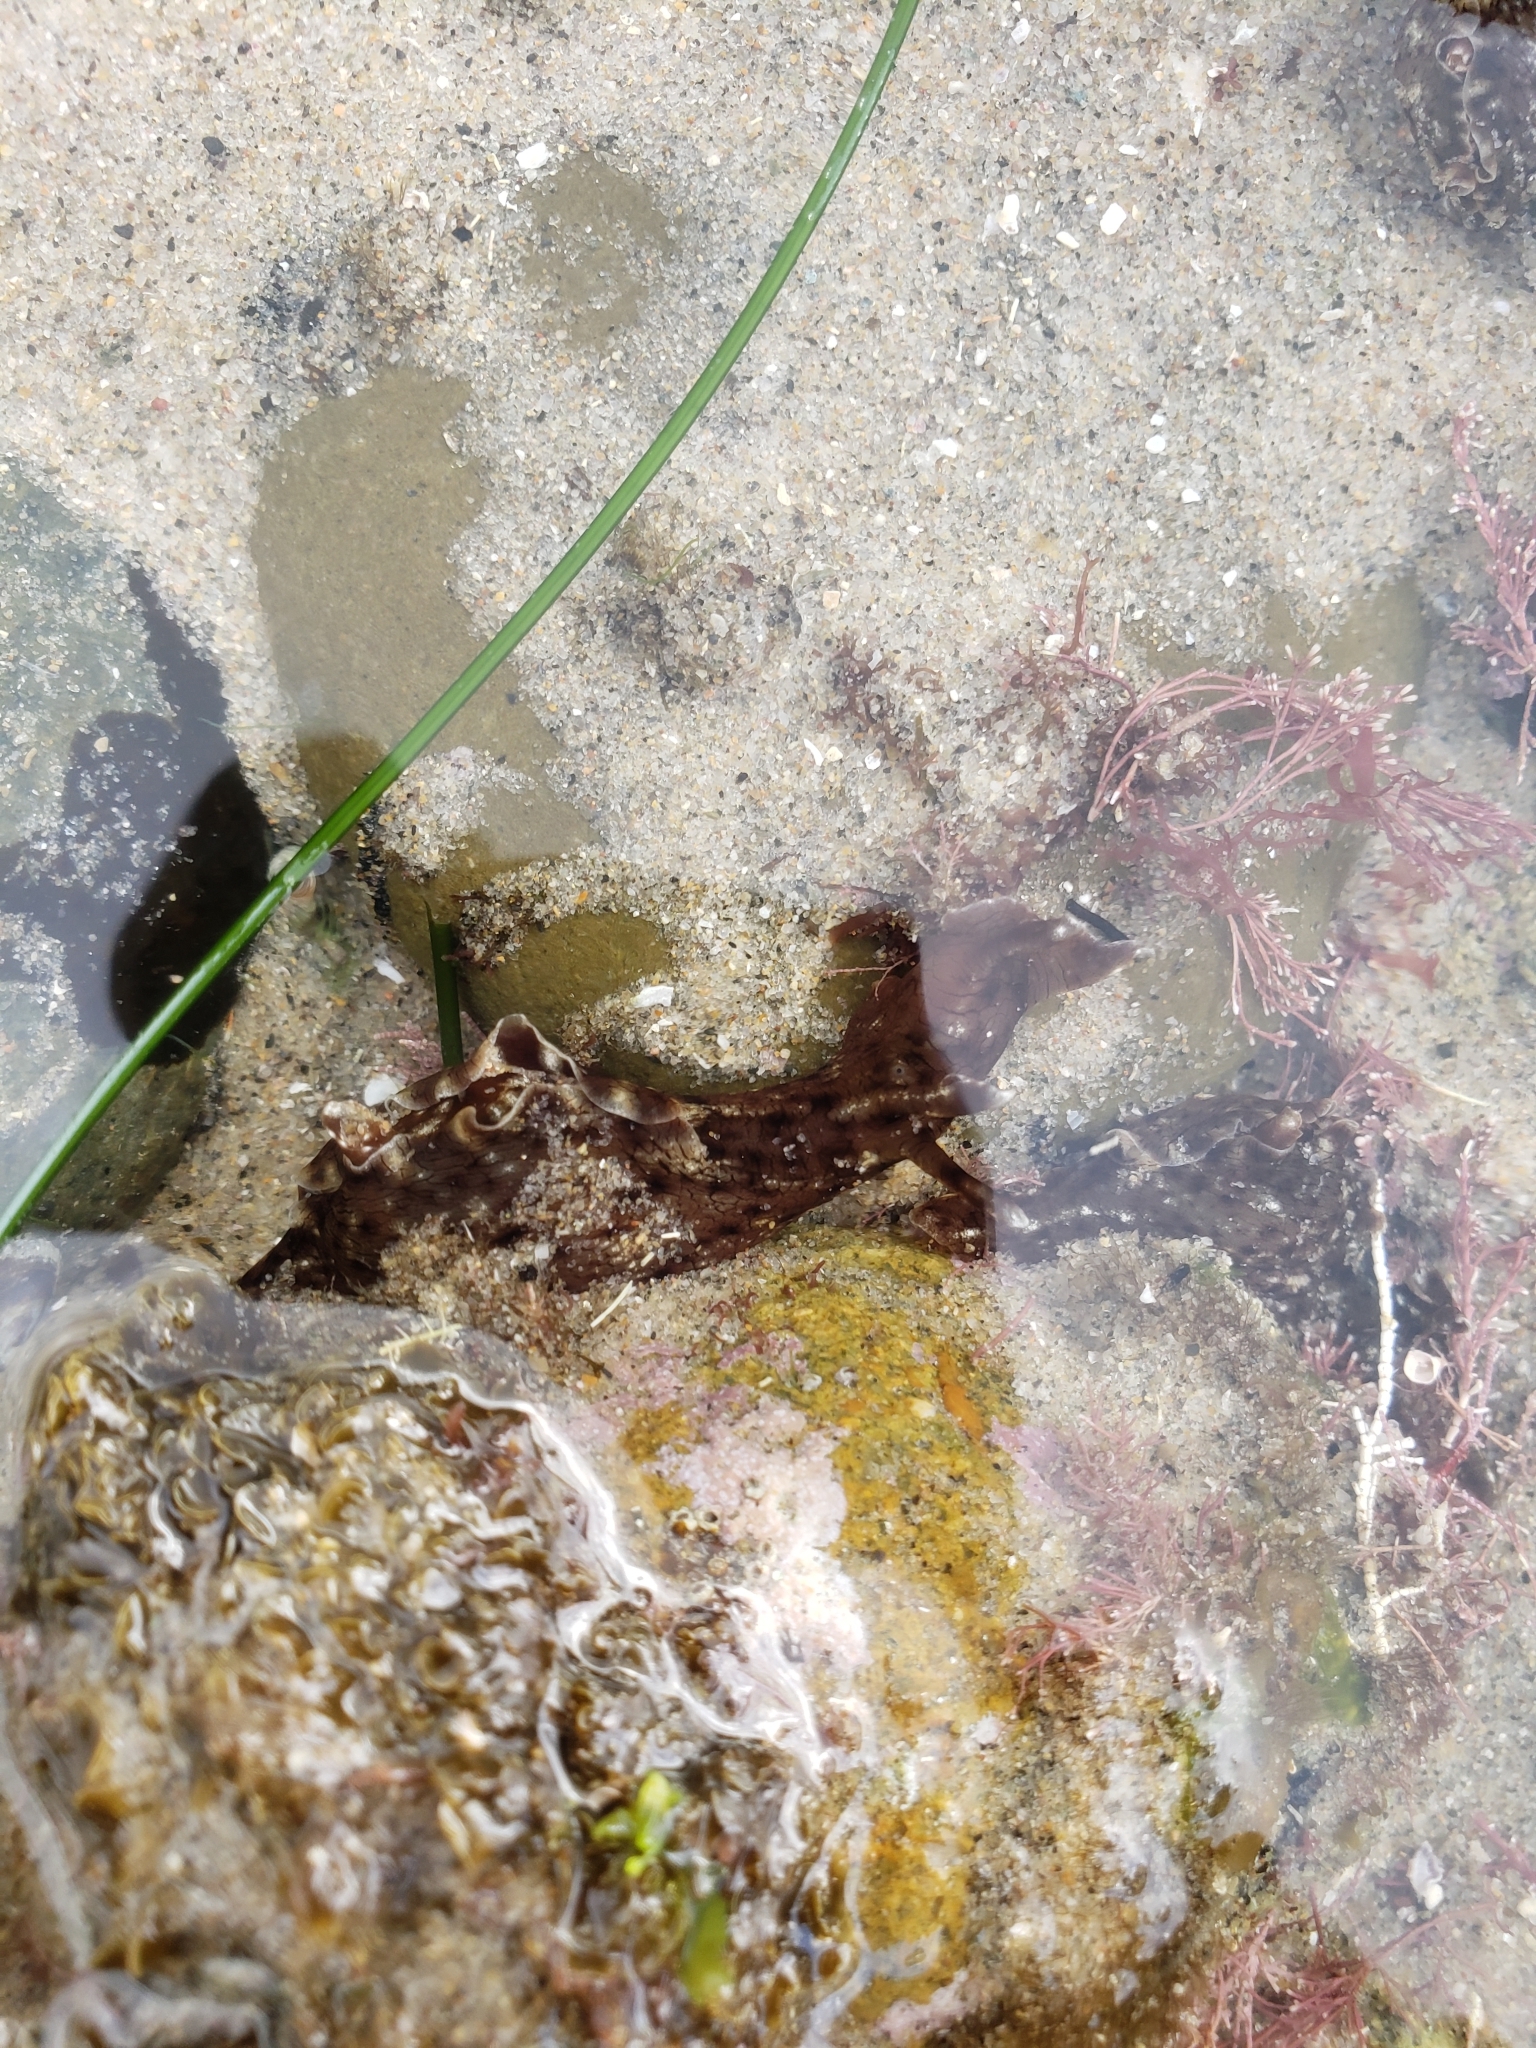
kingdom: Animalia
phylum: Mollusca
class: Gastropoda
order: Aplysiida
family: Aplysiidae
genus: Aplysia
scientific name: Aplysia californica
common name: California seahare
